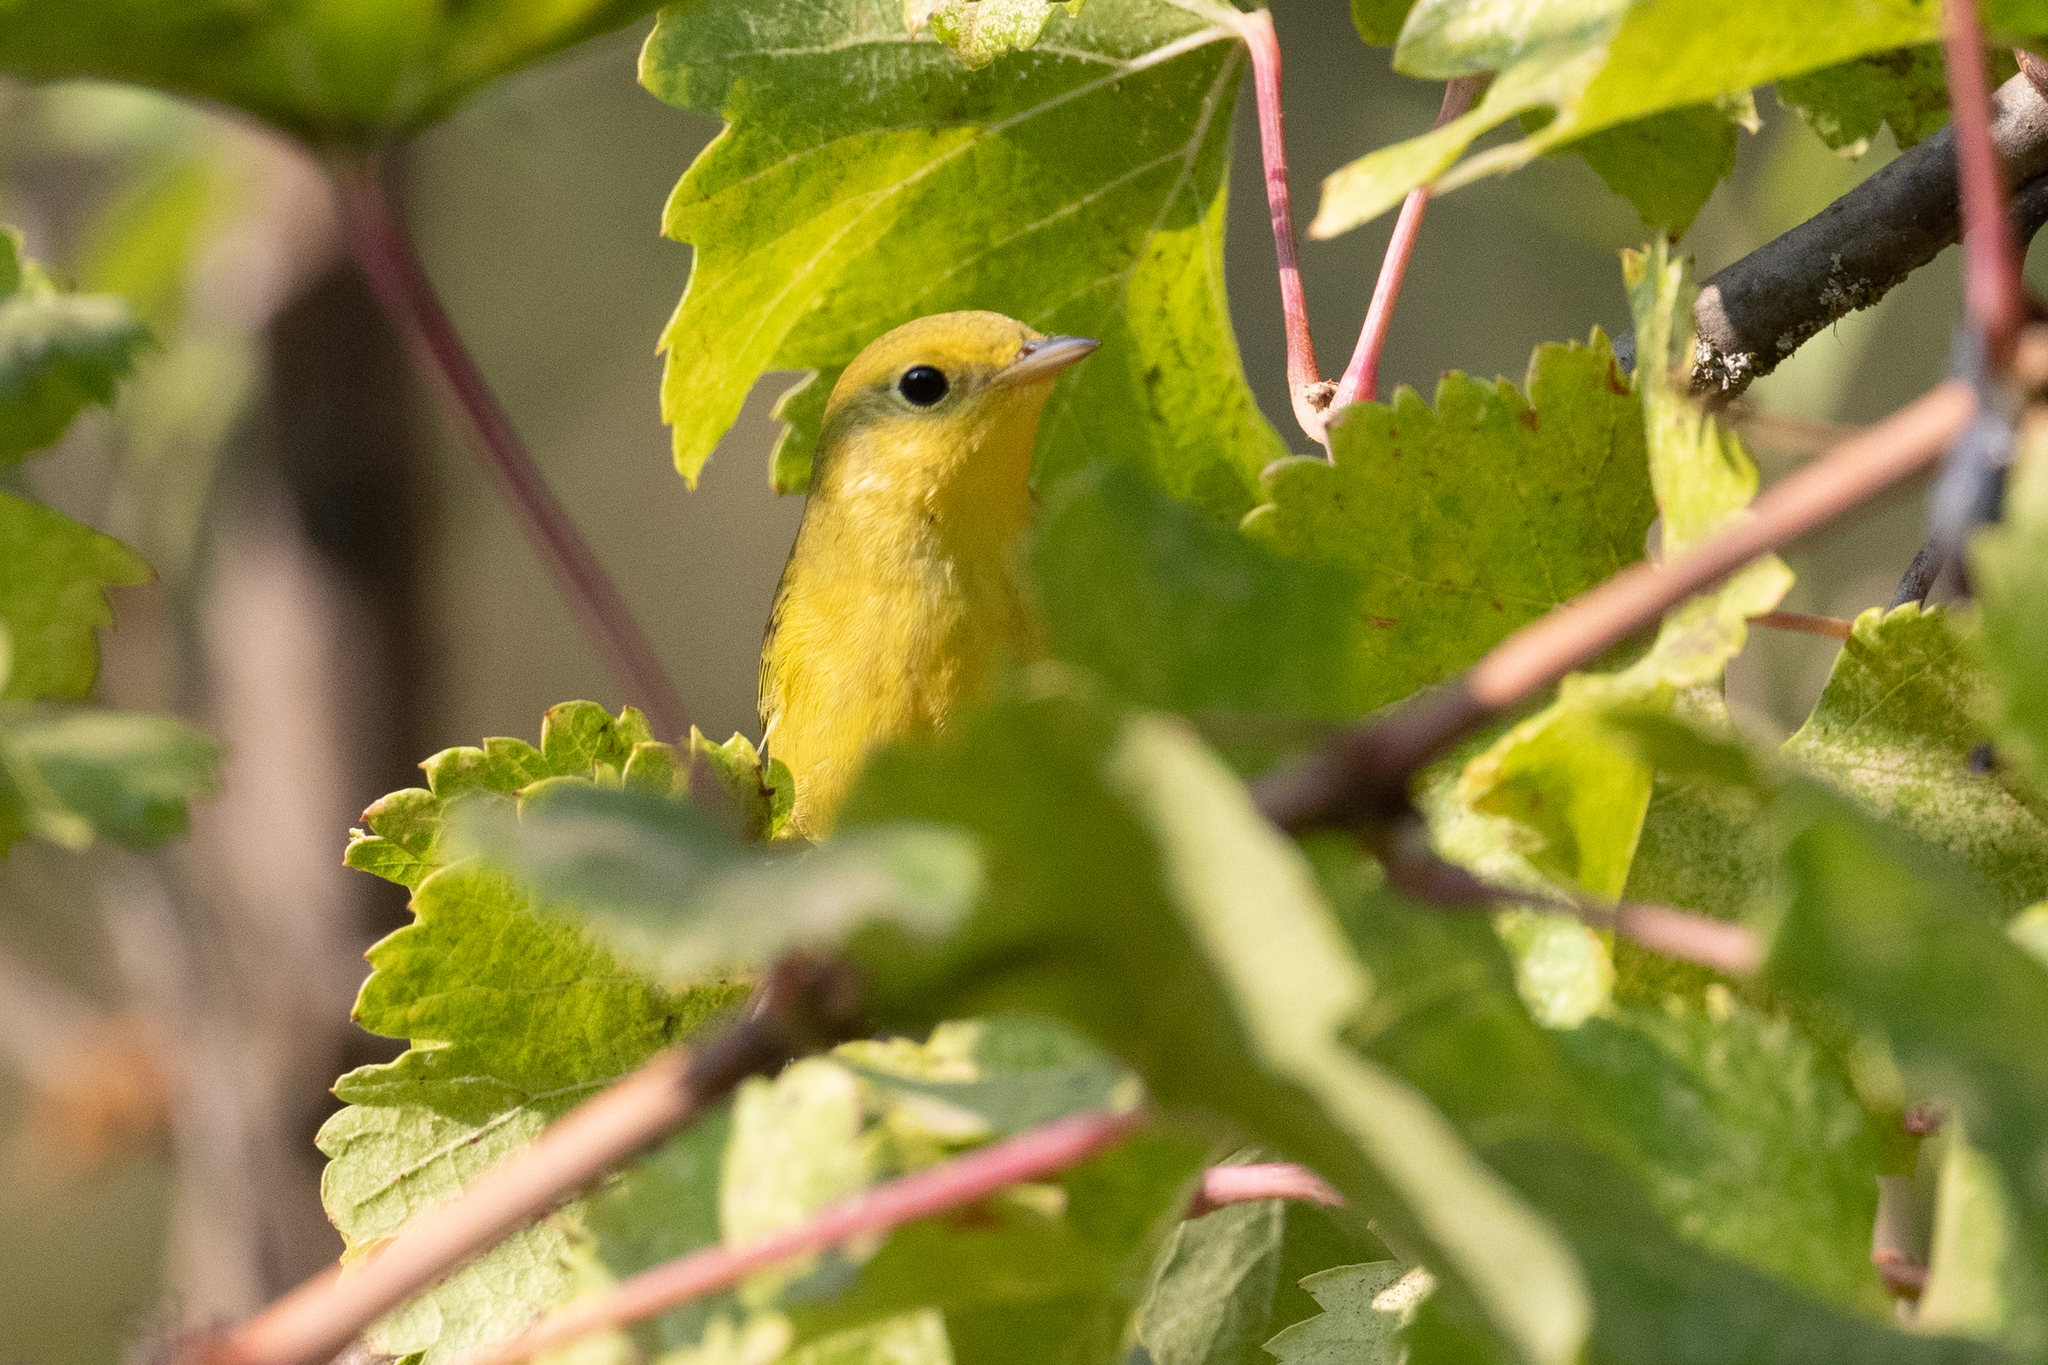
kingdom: Animalia
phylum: Chordata
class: Aves
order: Passeriformes
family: Parulidae
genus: Setophaga
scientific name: Setophaga petechia
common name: Yellow warbler
